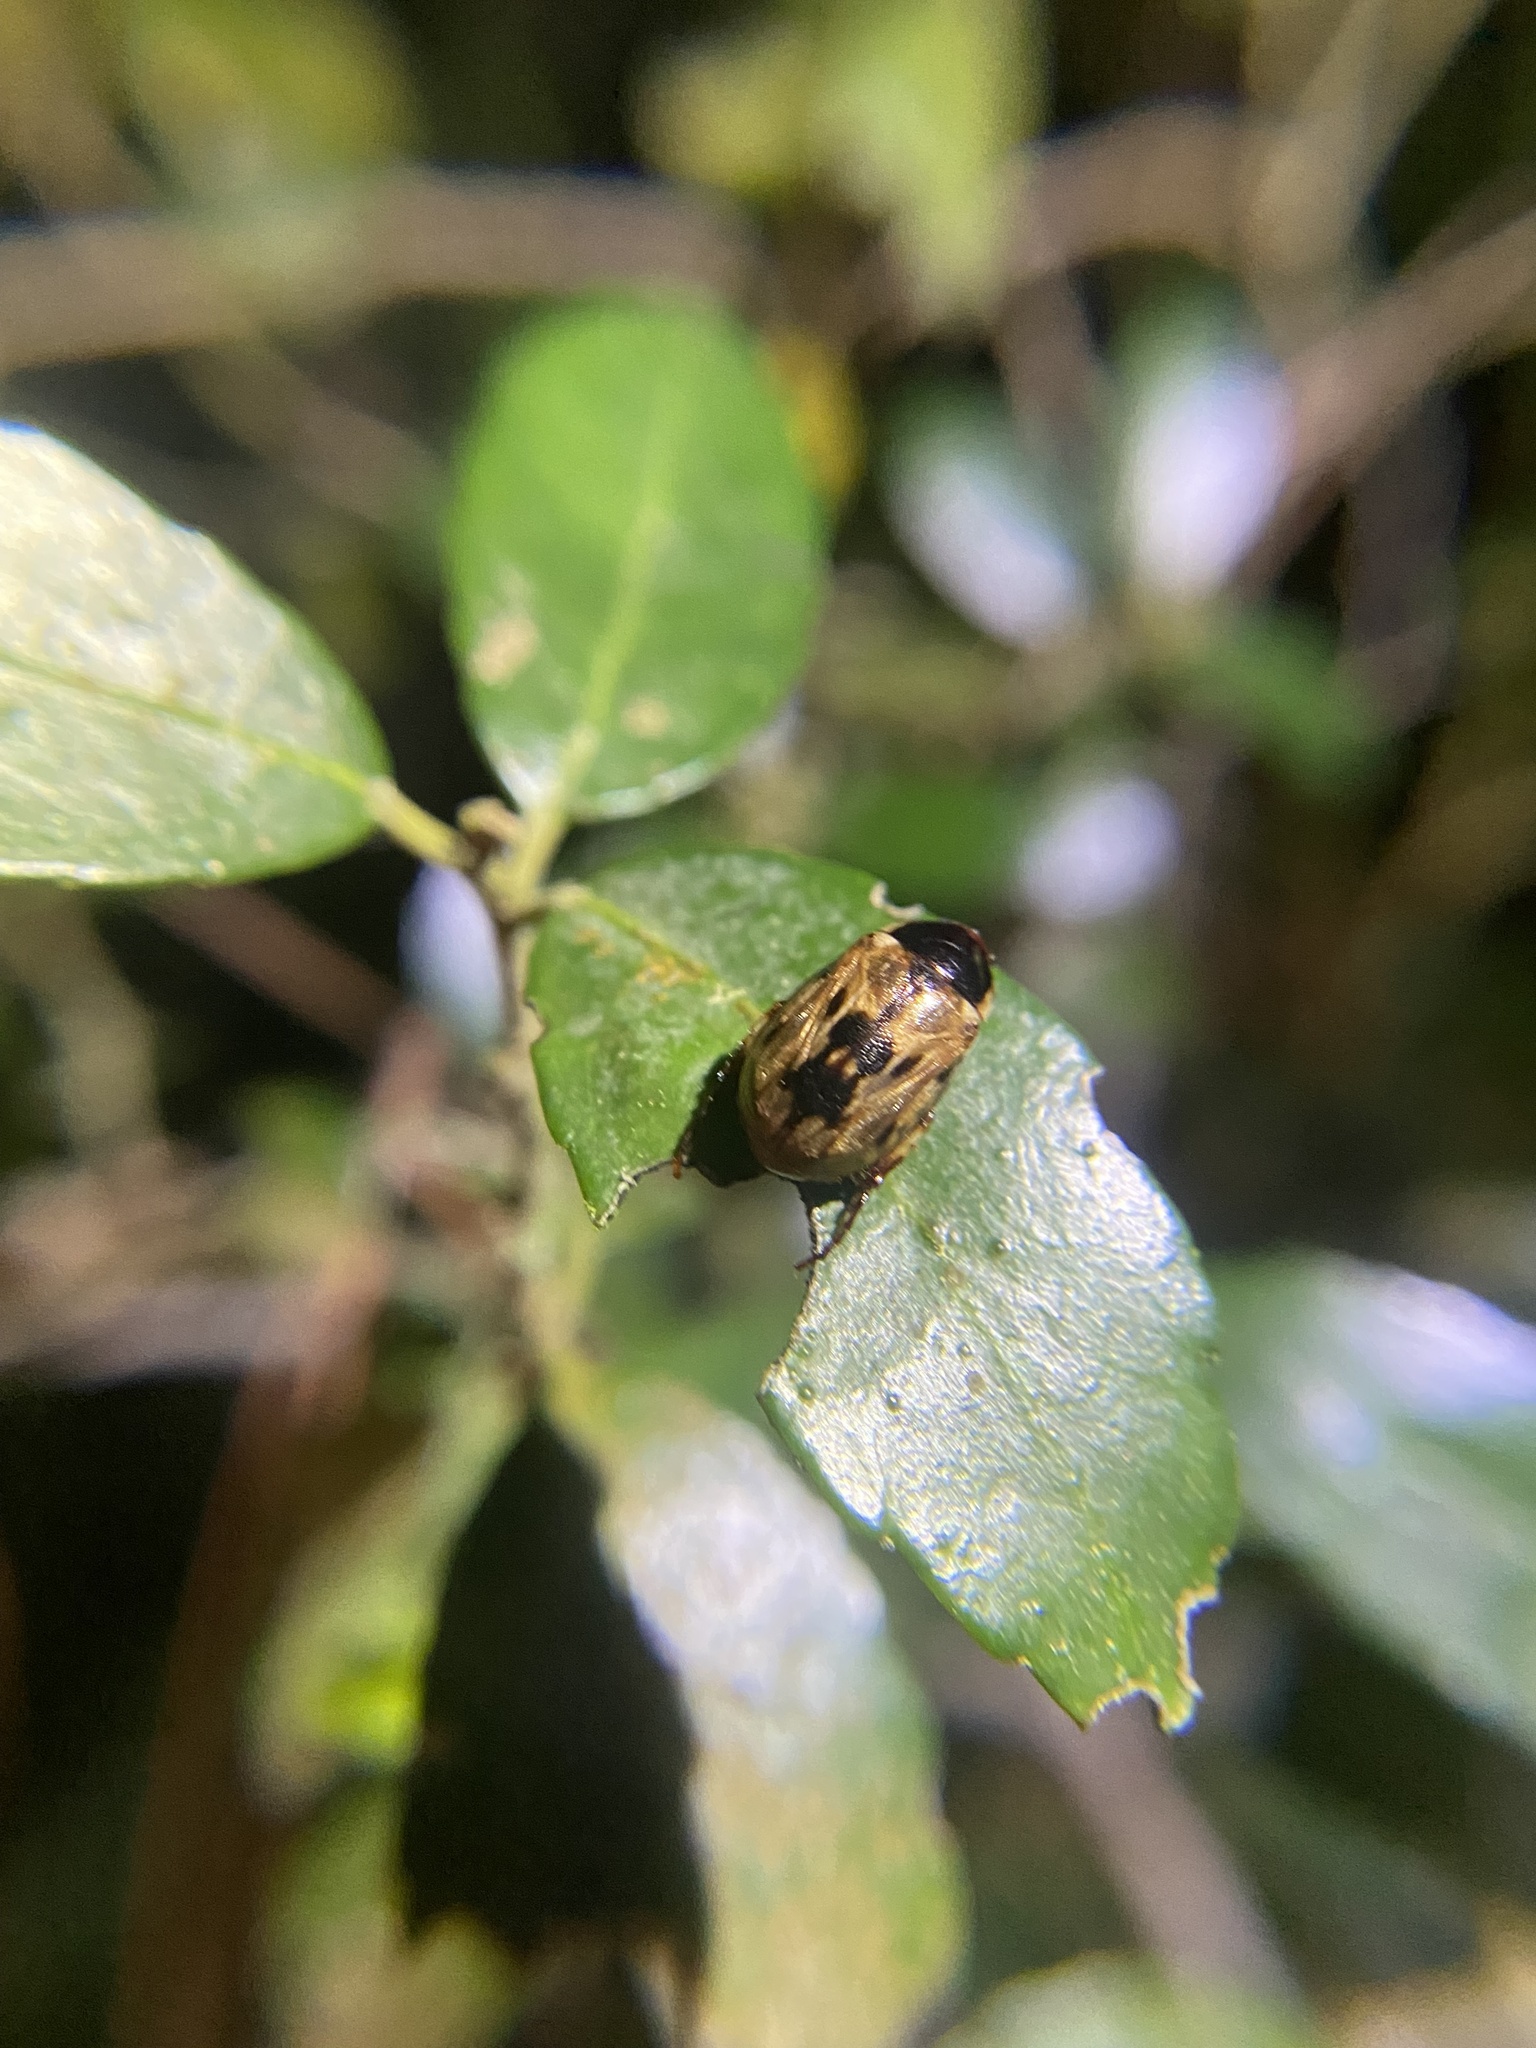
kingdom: Animalia
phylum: Arthropoda
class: Insecta
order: Coleoptera
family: Scarabaeidae
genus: Paranomala
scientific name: Paranomala undulata
